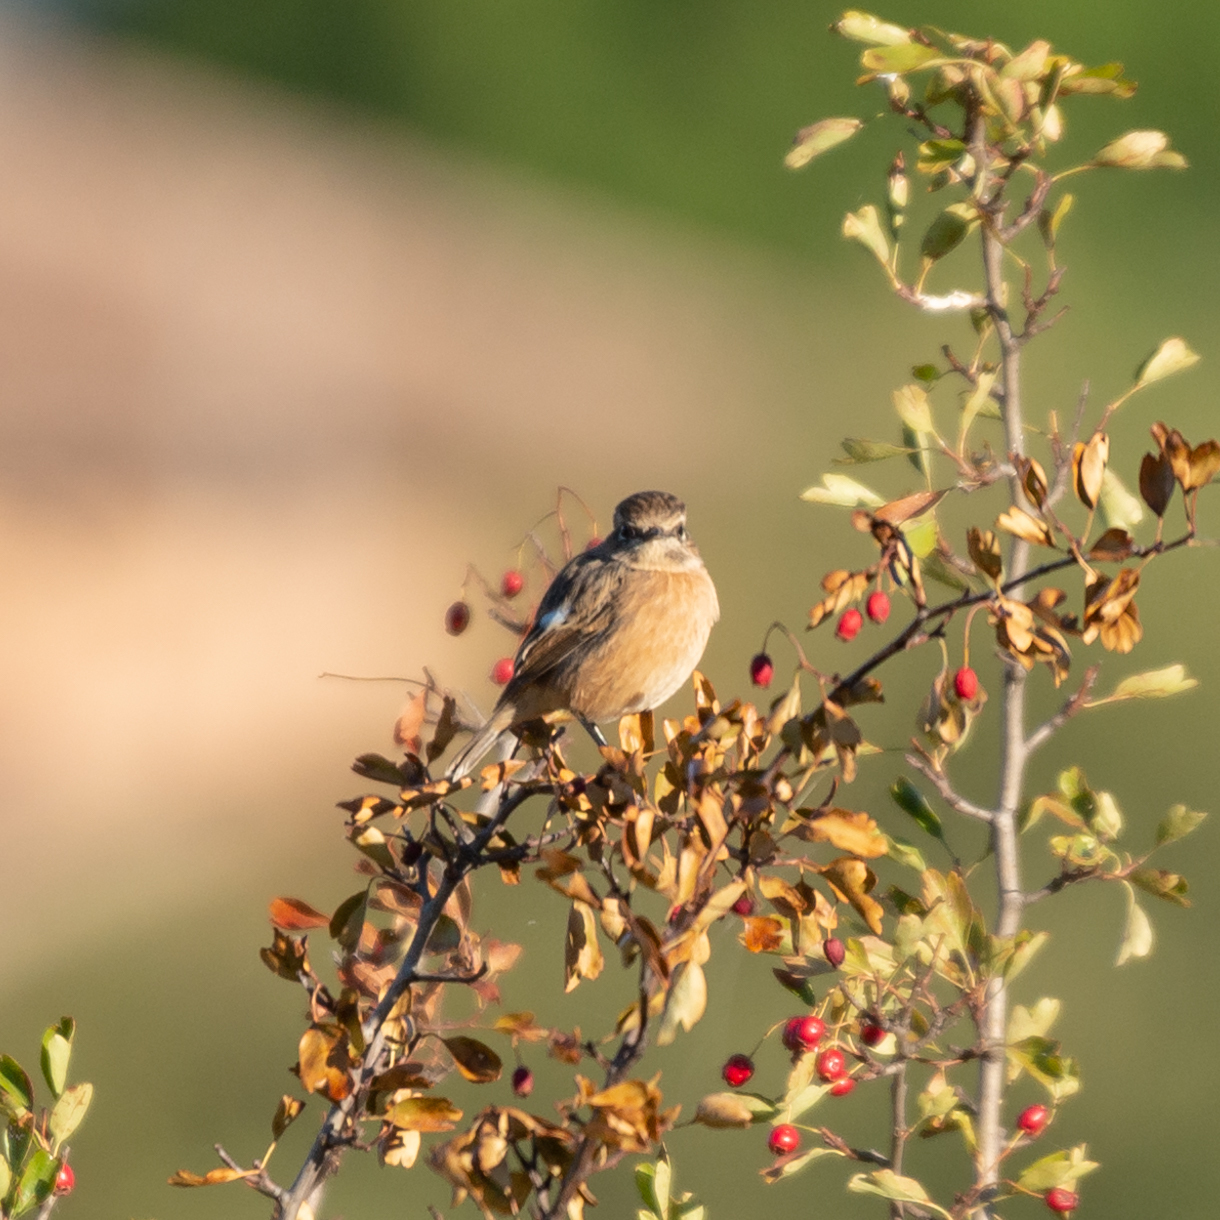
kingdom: Animalia
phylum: Chordata
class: Aves
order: Passeriformes
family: Muscicapidae
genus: Saxicola
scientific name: Saxicola rubicola
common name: European stonechat
